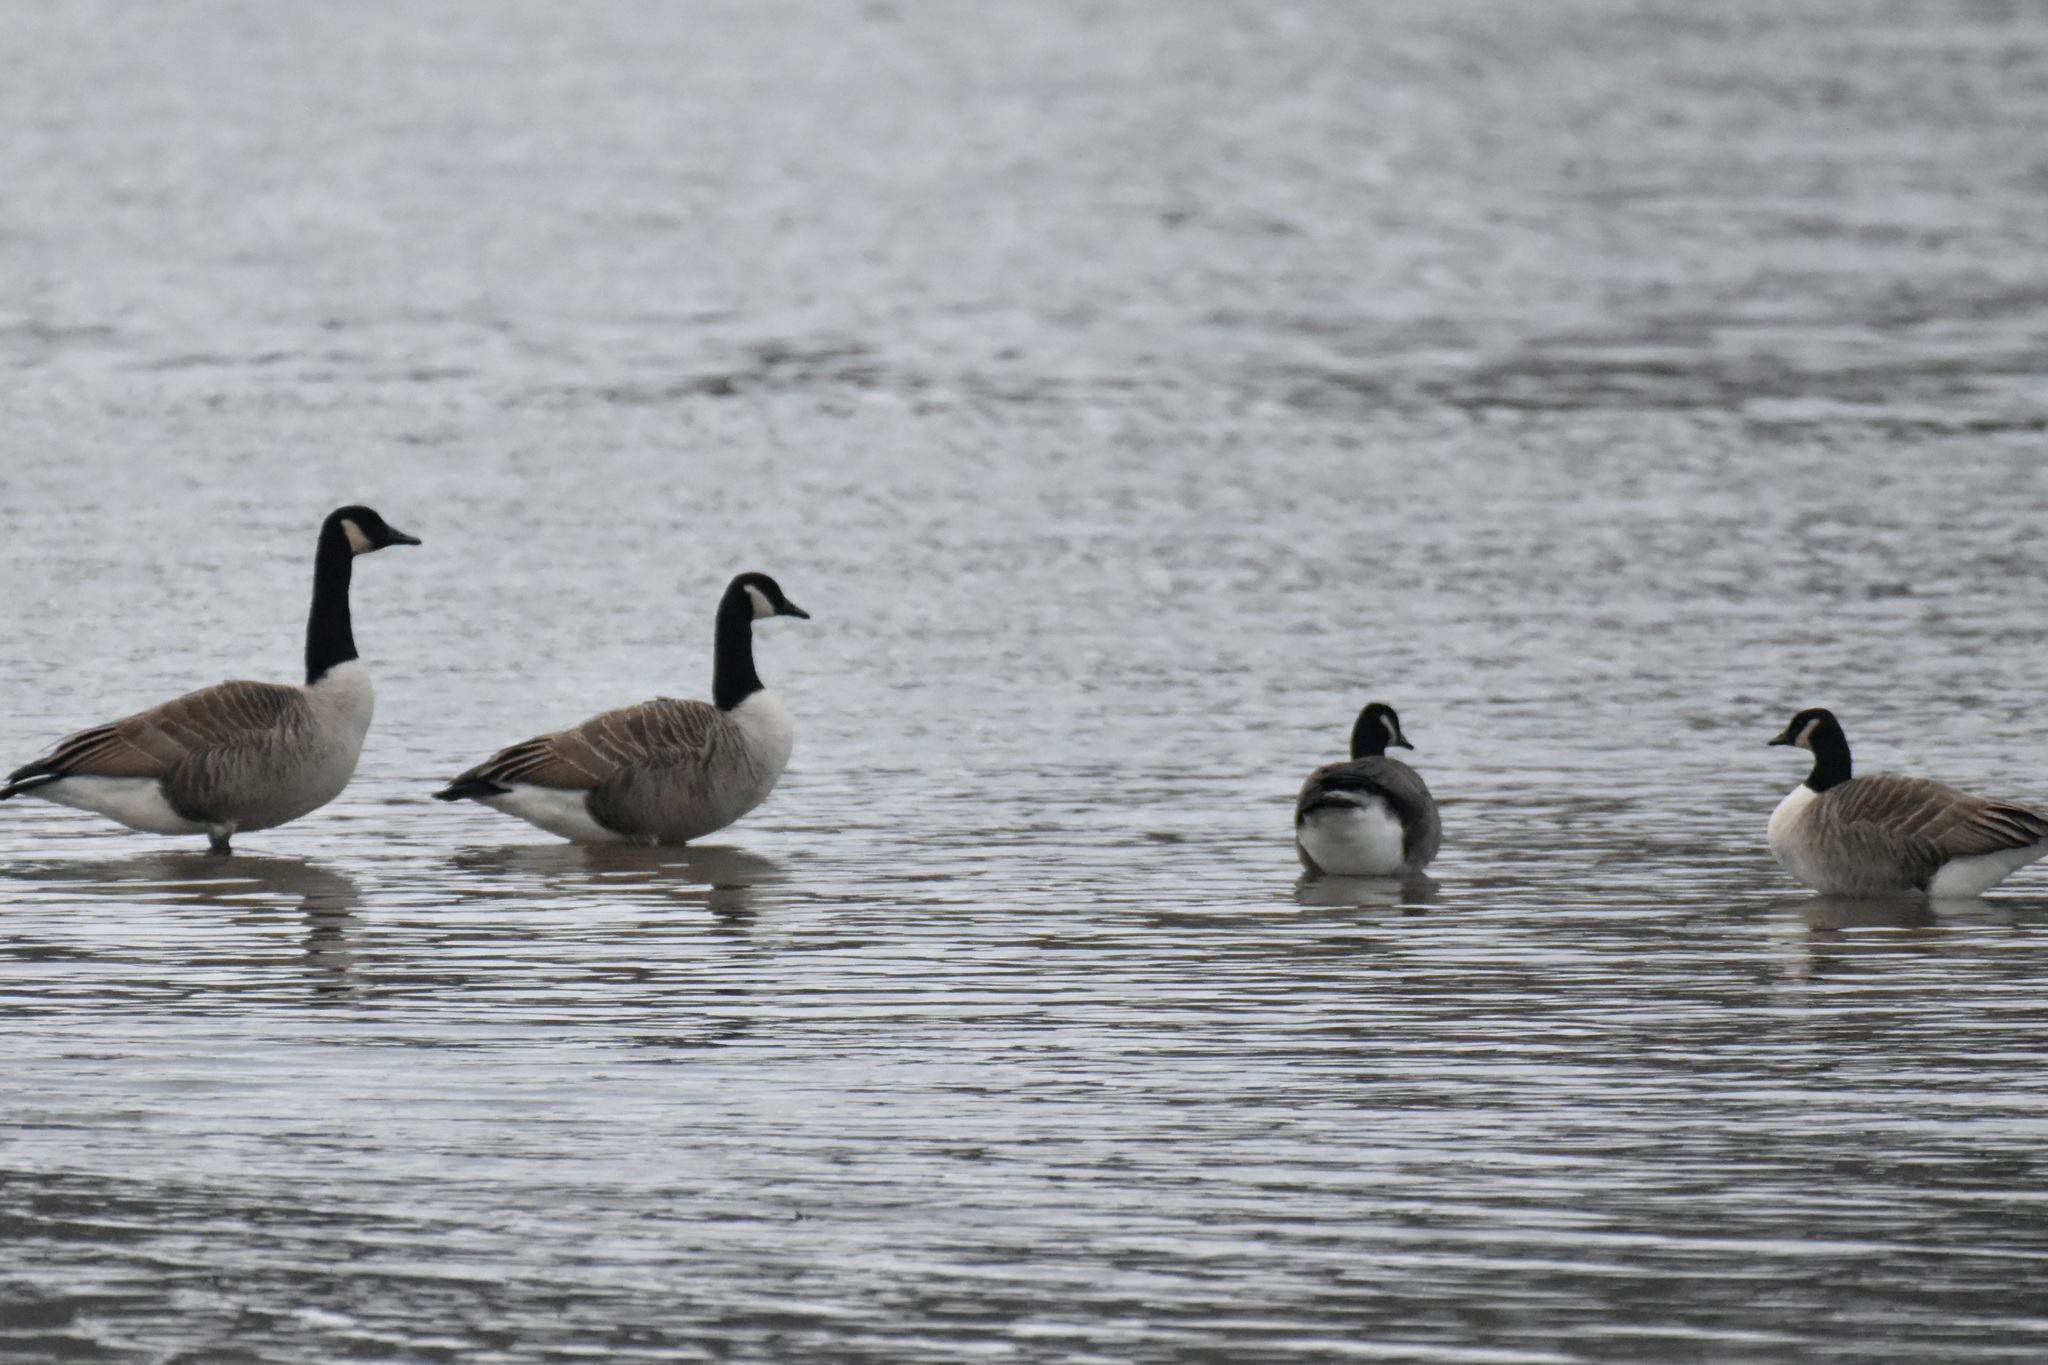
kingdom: Animalia
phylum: Chordata
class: Aves
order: Anseriformes
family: Anatidae
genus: Branta
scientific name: Branta canadensis
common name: Canada goose
